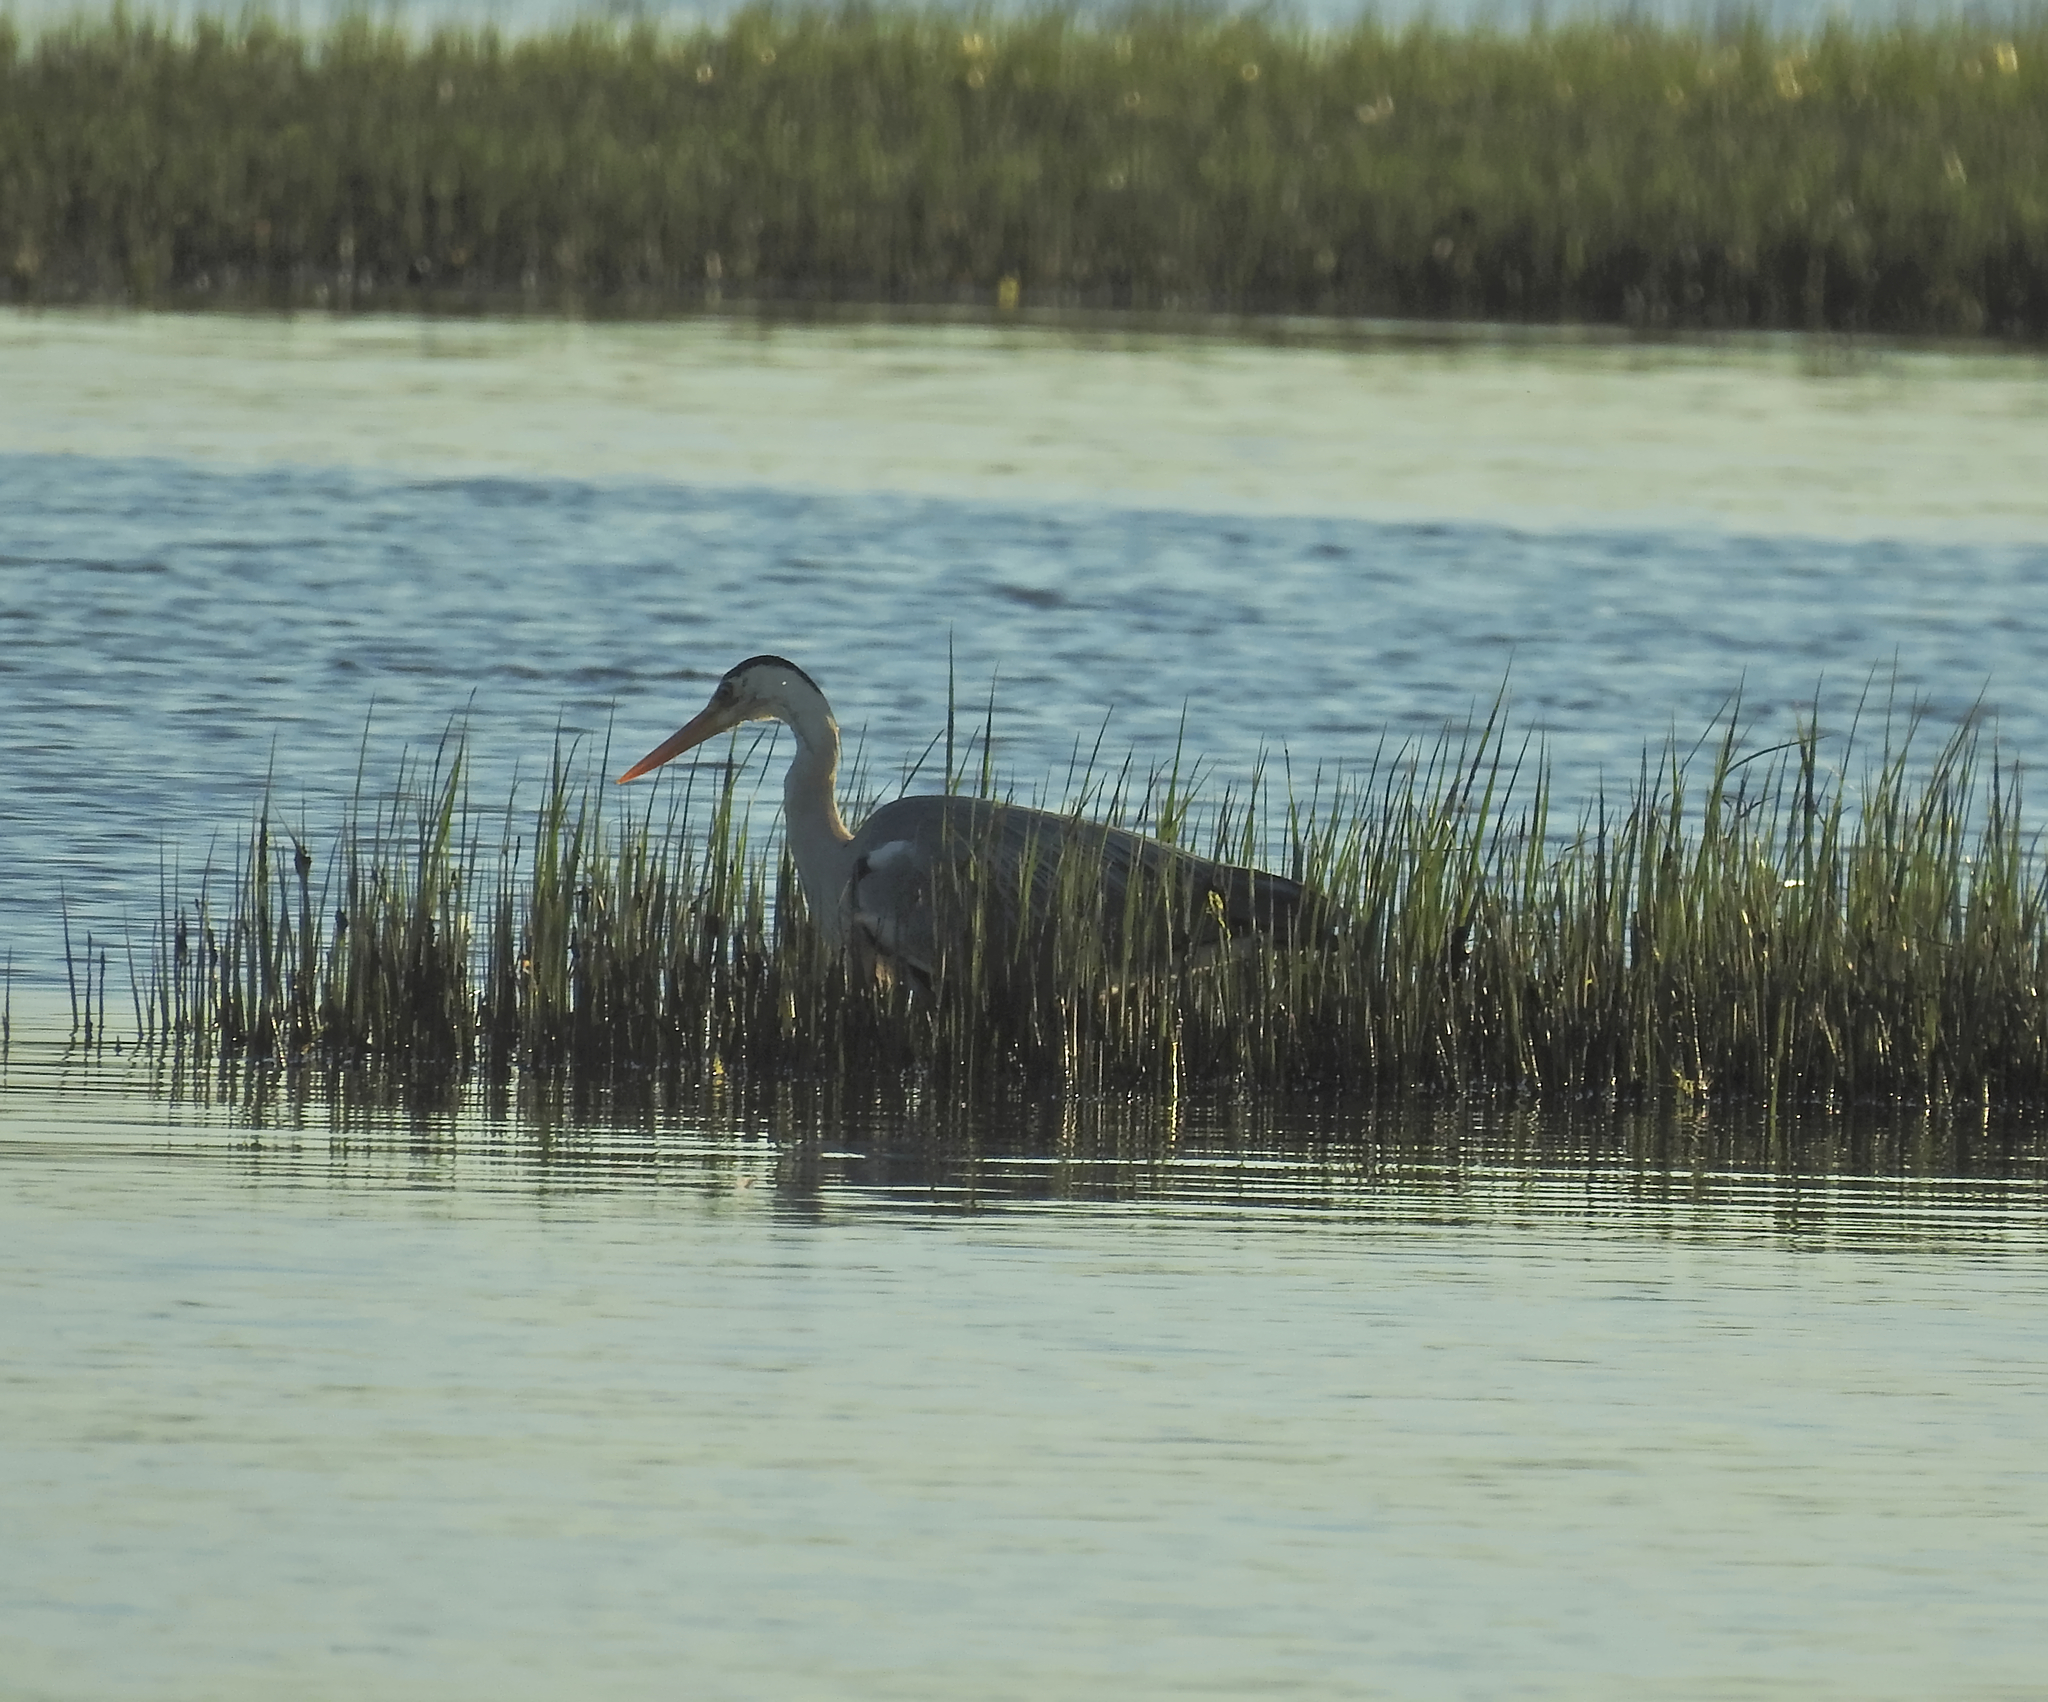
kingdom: Animalia
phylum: Chordata
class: Aves
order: Pelecaniformes
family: Ardeidae
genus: Ardea
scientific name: Ardea cinerea
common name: Grey heron
